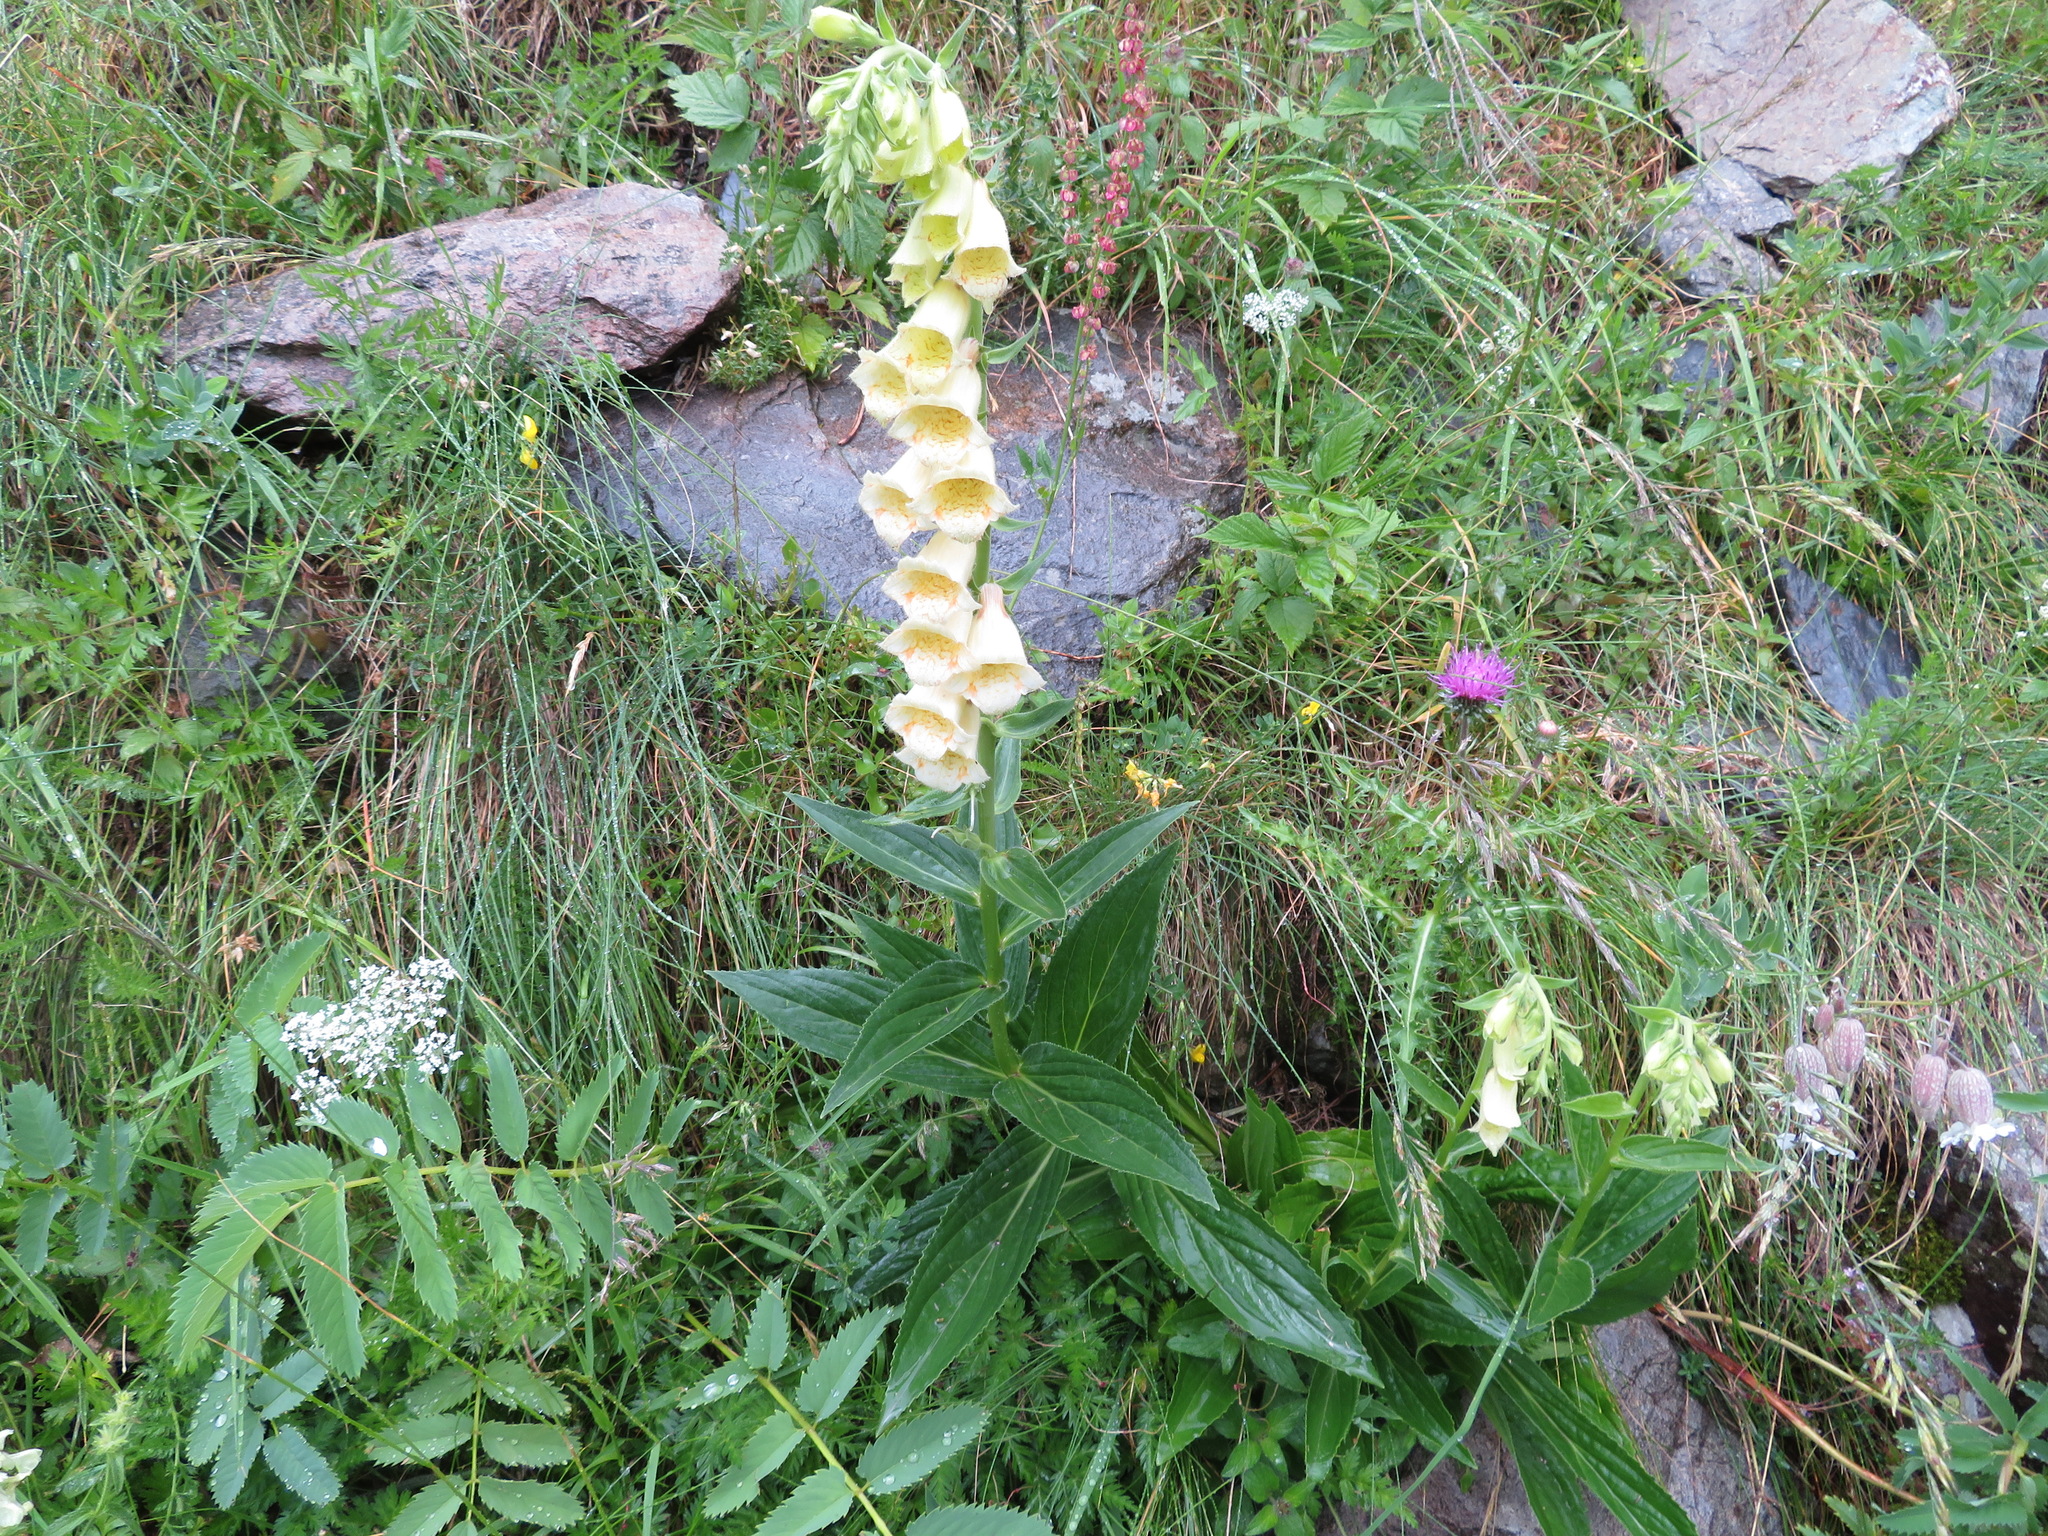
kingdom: Plantae
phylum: Tracheophyta
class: Magnoliopsida
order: Lamiales
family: Plantaginaceae
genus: Digitalis
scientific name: Digitalis grandiflora
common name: Yellow foxglove
